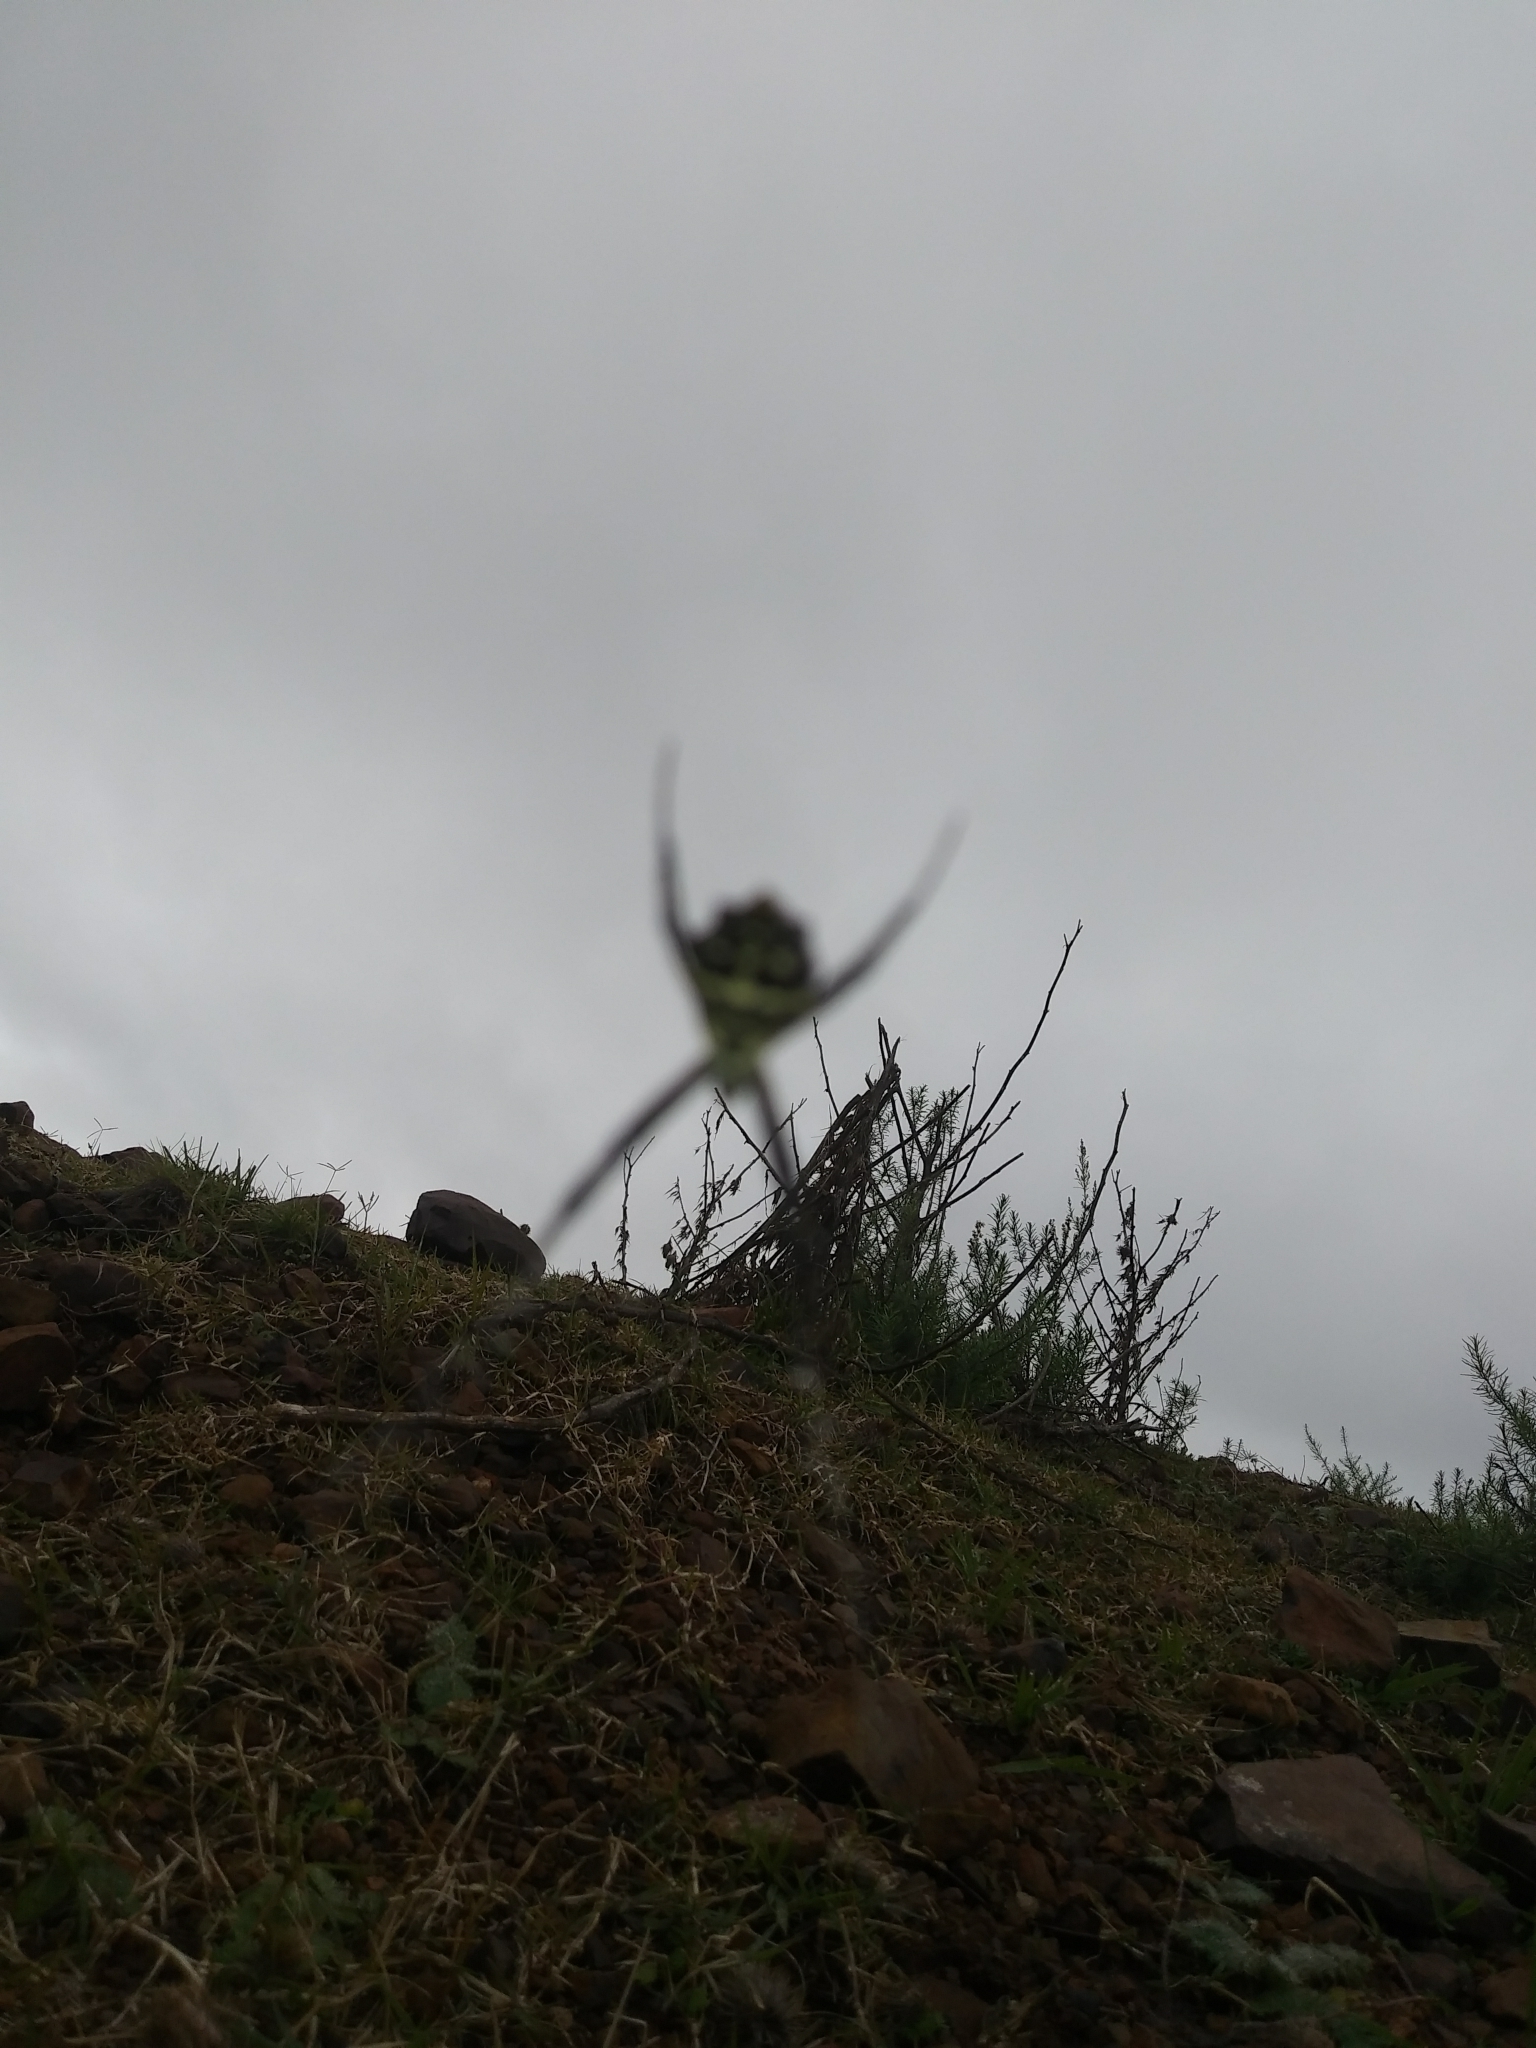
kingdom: Animalia
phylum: Arthropoda
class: Arachnida
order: Araneae
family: Araneidae
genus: Argiope
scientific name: Argiope argentata
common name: Orb weavers
